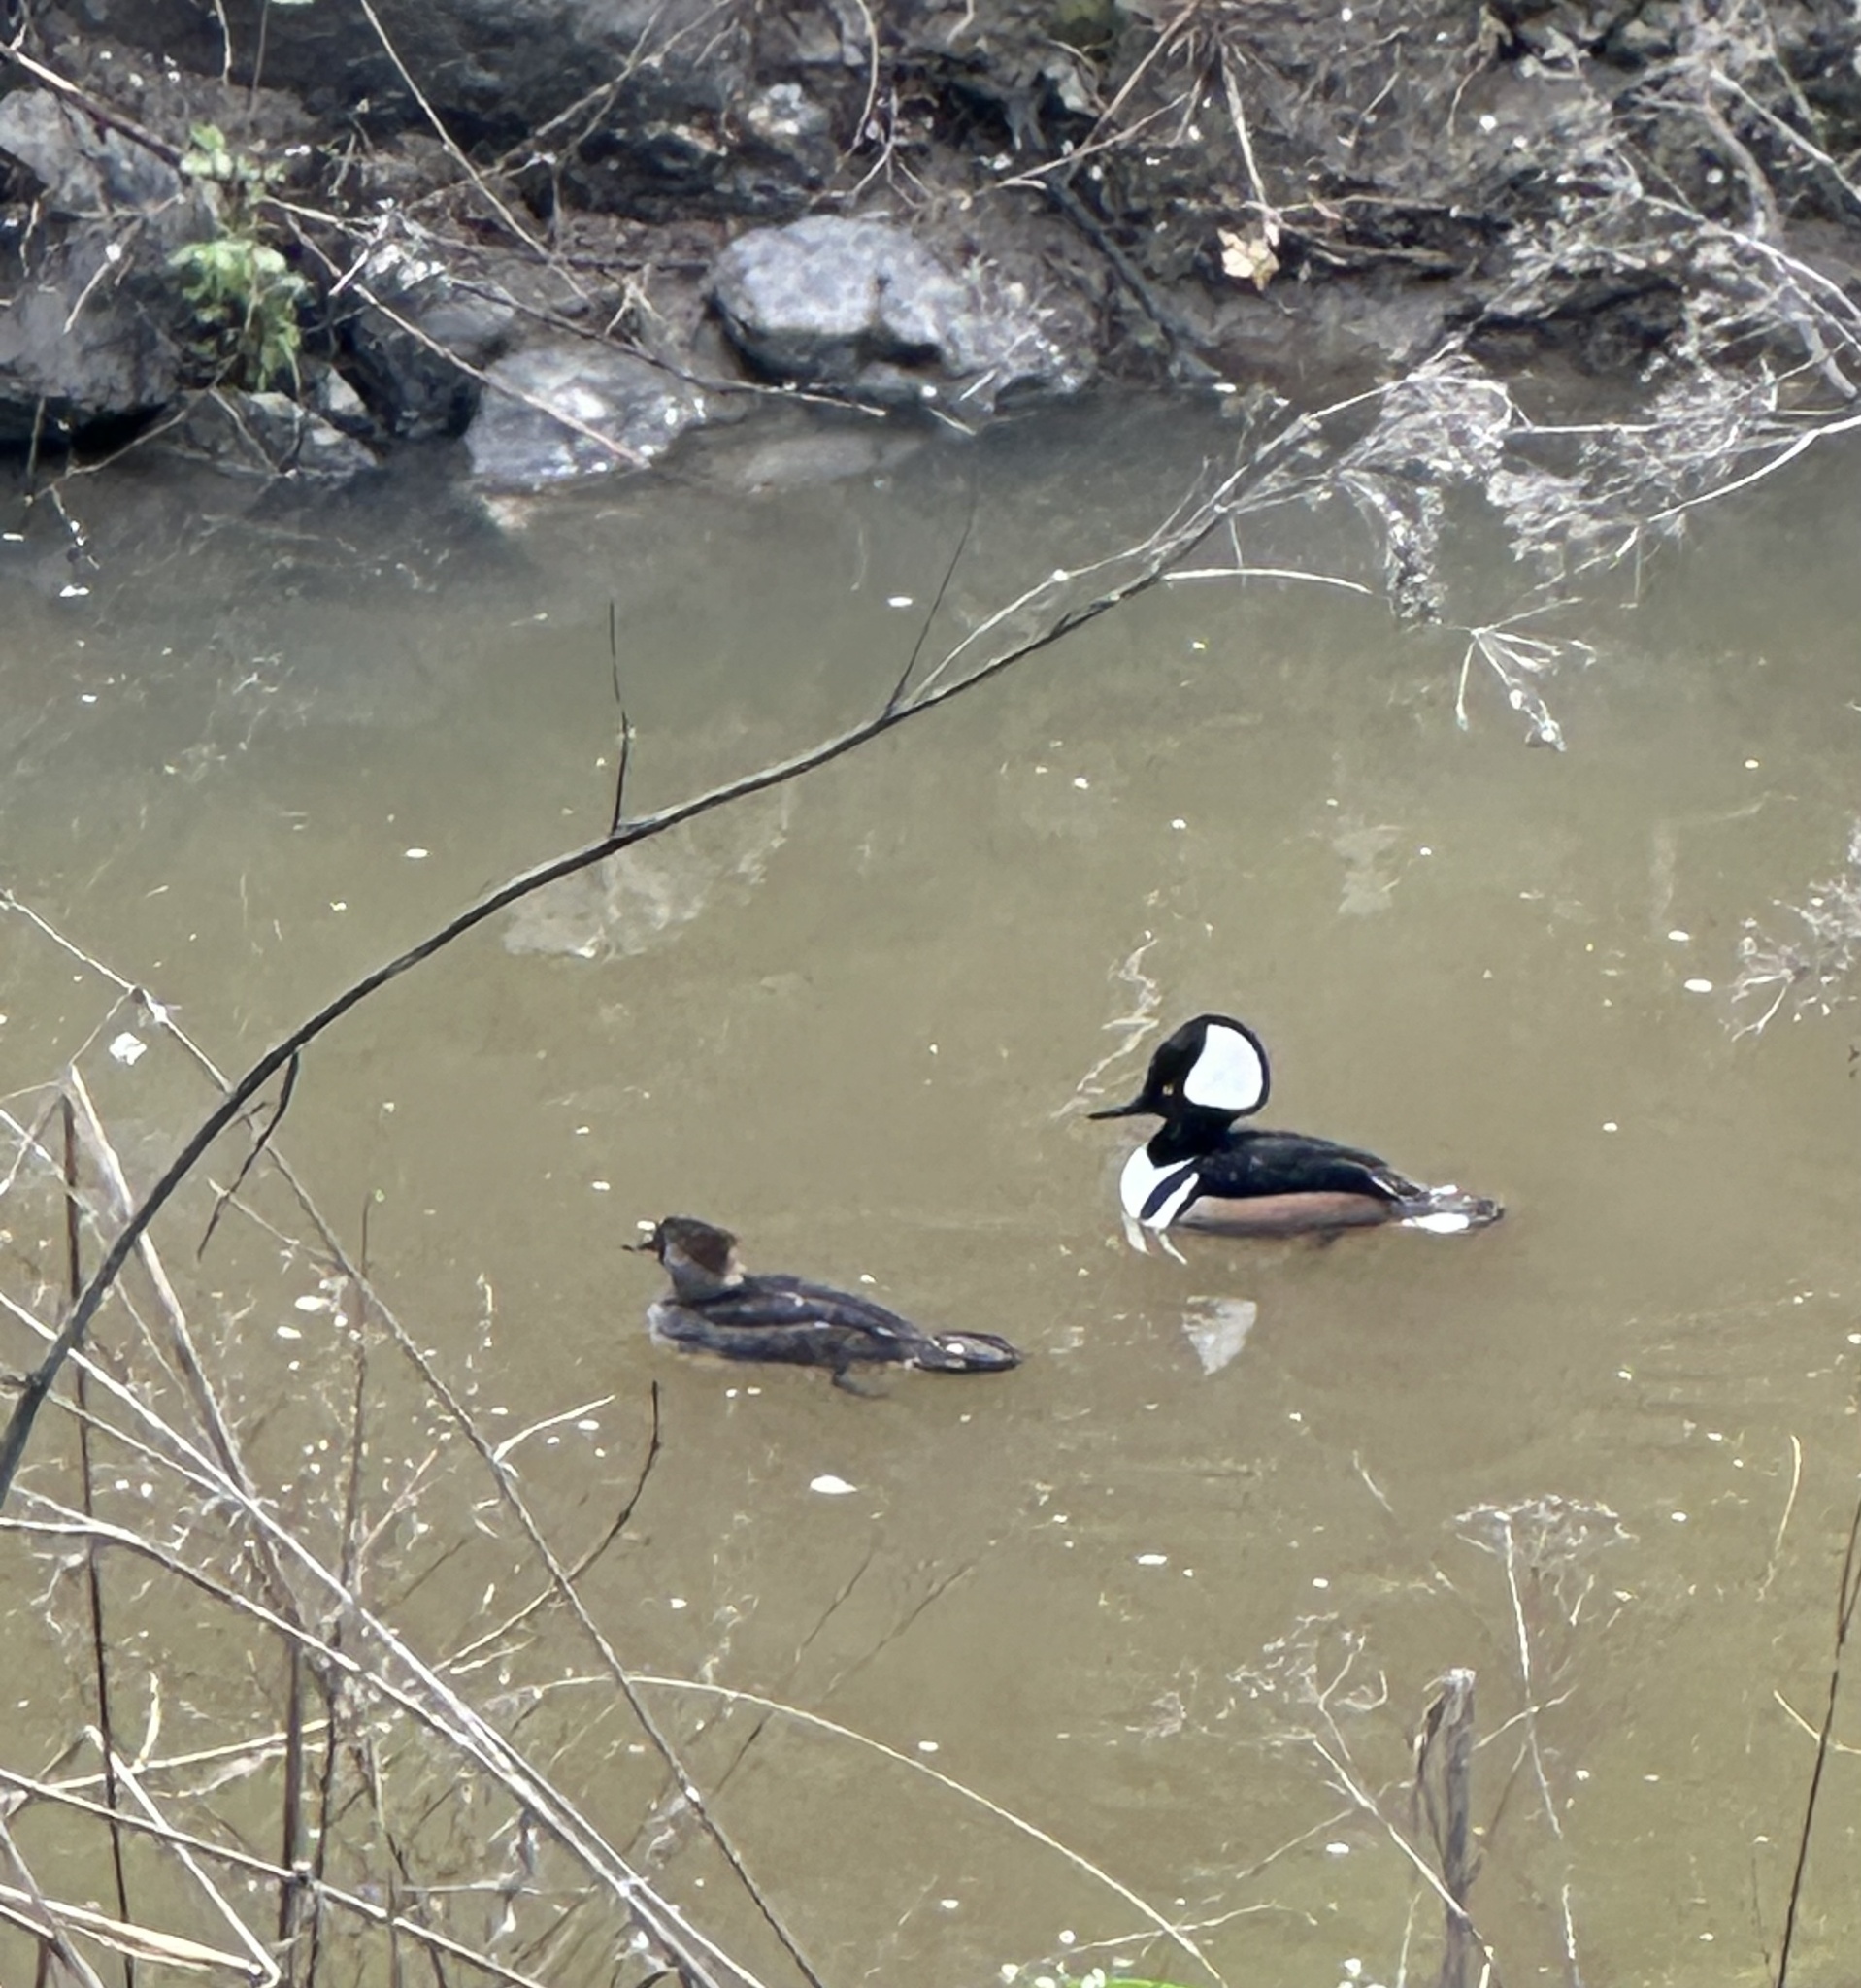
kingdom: Animalia
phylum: Chordata
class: Aves
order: Anseriformes
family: Anatidae
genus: Lophodytes
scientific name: Lophodytes cucullatus
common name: Hooded merganser
